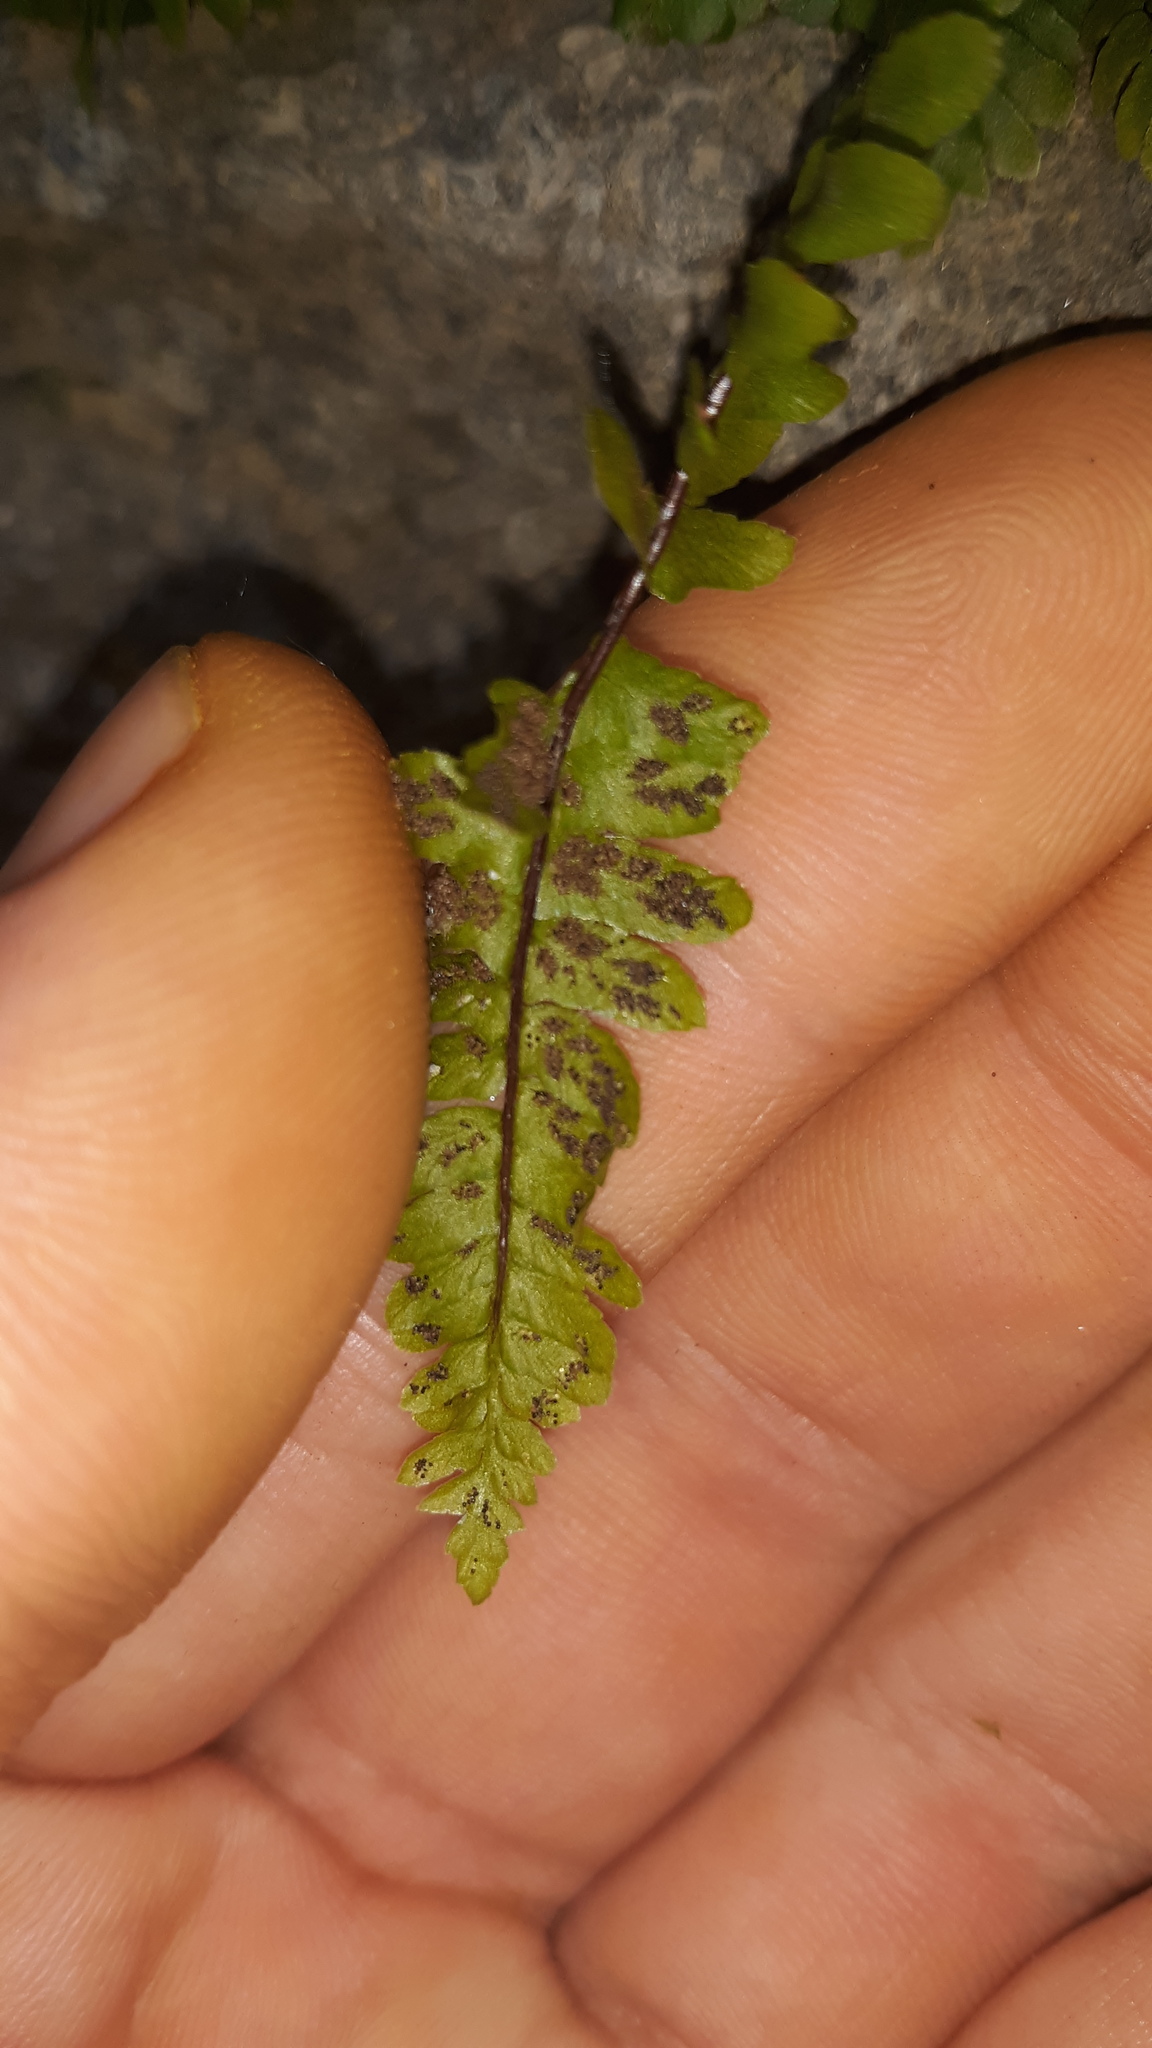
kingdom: Plantae
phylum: Tracheophyta
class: Polypodiopsida
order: Polypodiales
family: Aspleniaceae
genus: Asplenium
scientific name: Asplenium platyneuron
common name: Ebony spleenwort
